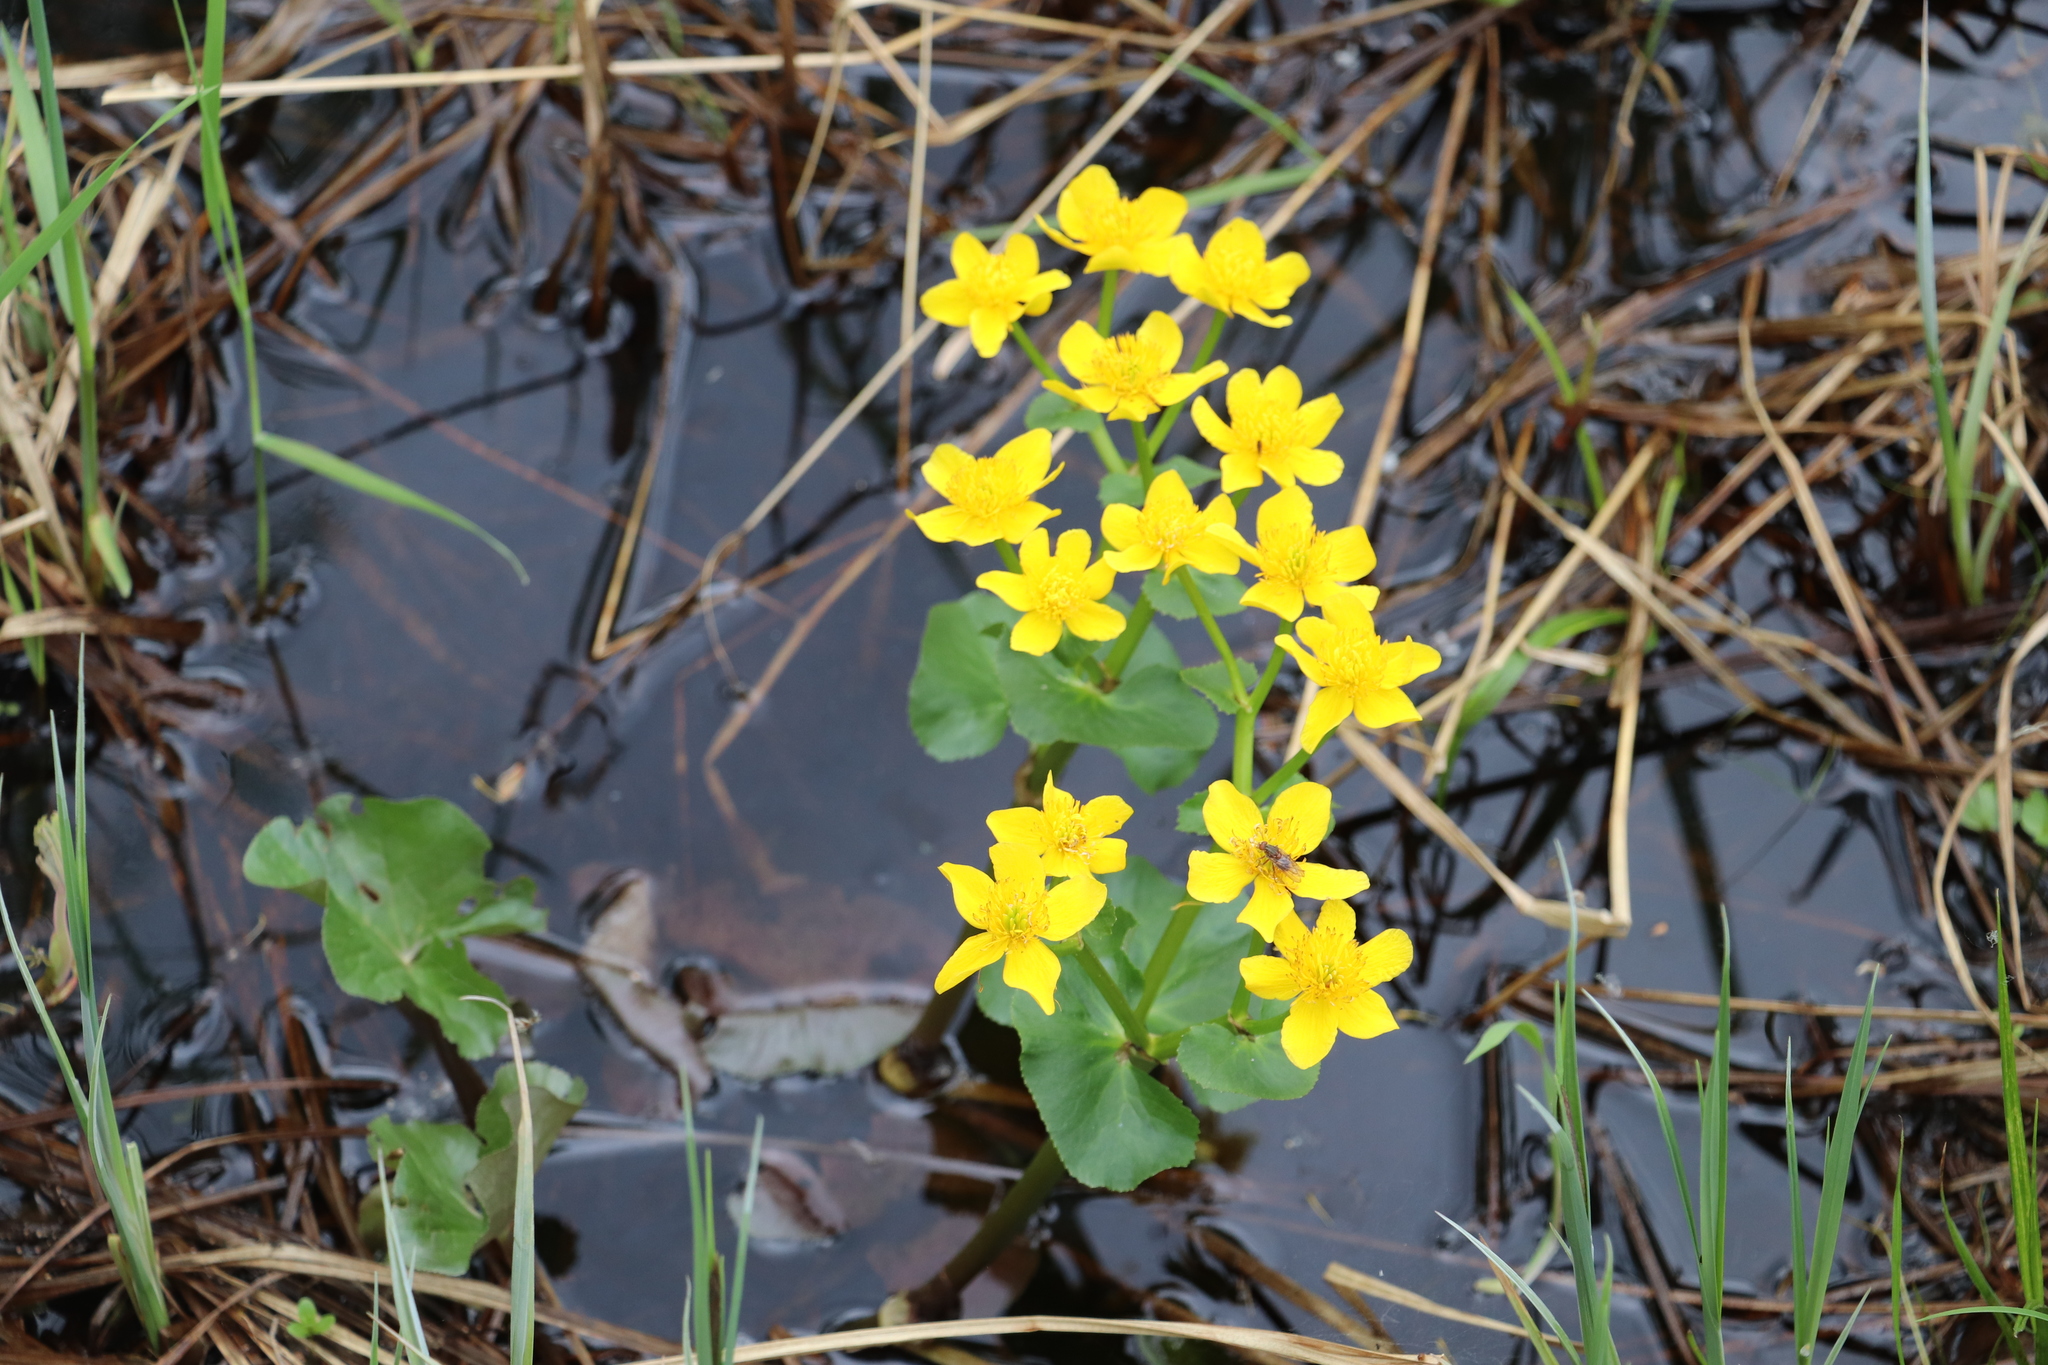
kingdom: Plantae
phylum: Tracheophyta
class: Magnoliopsida
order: Ranunculales
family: Ranunculaceae
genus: Caltha
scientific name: Caltha palustris
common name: Marsh marigold
